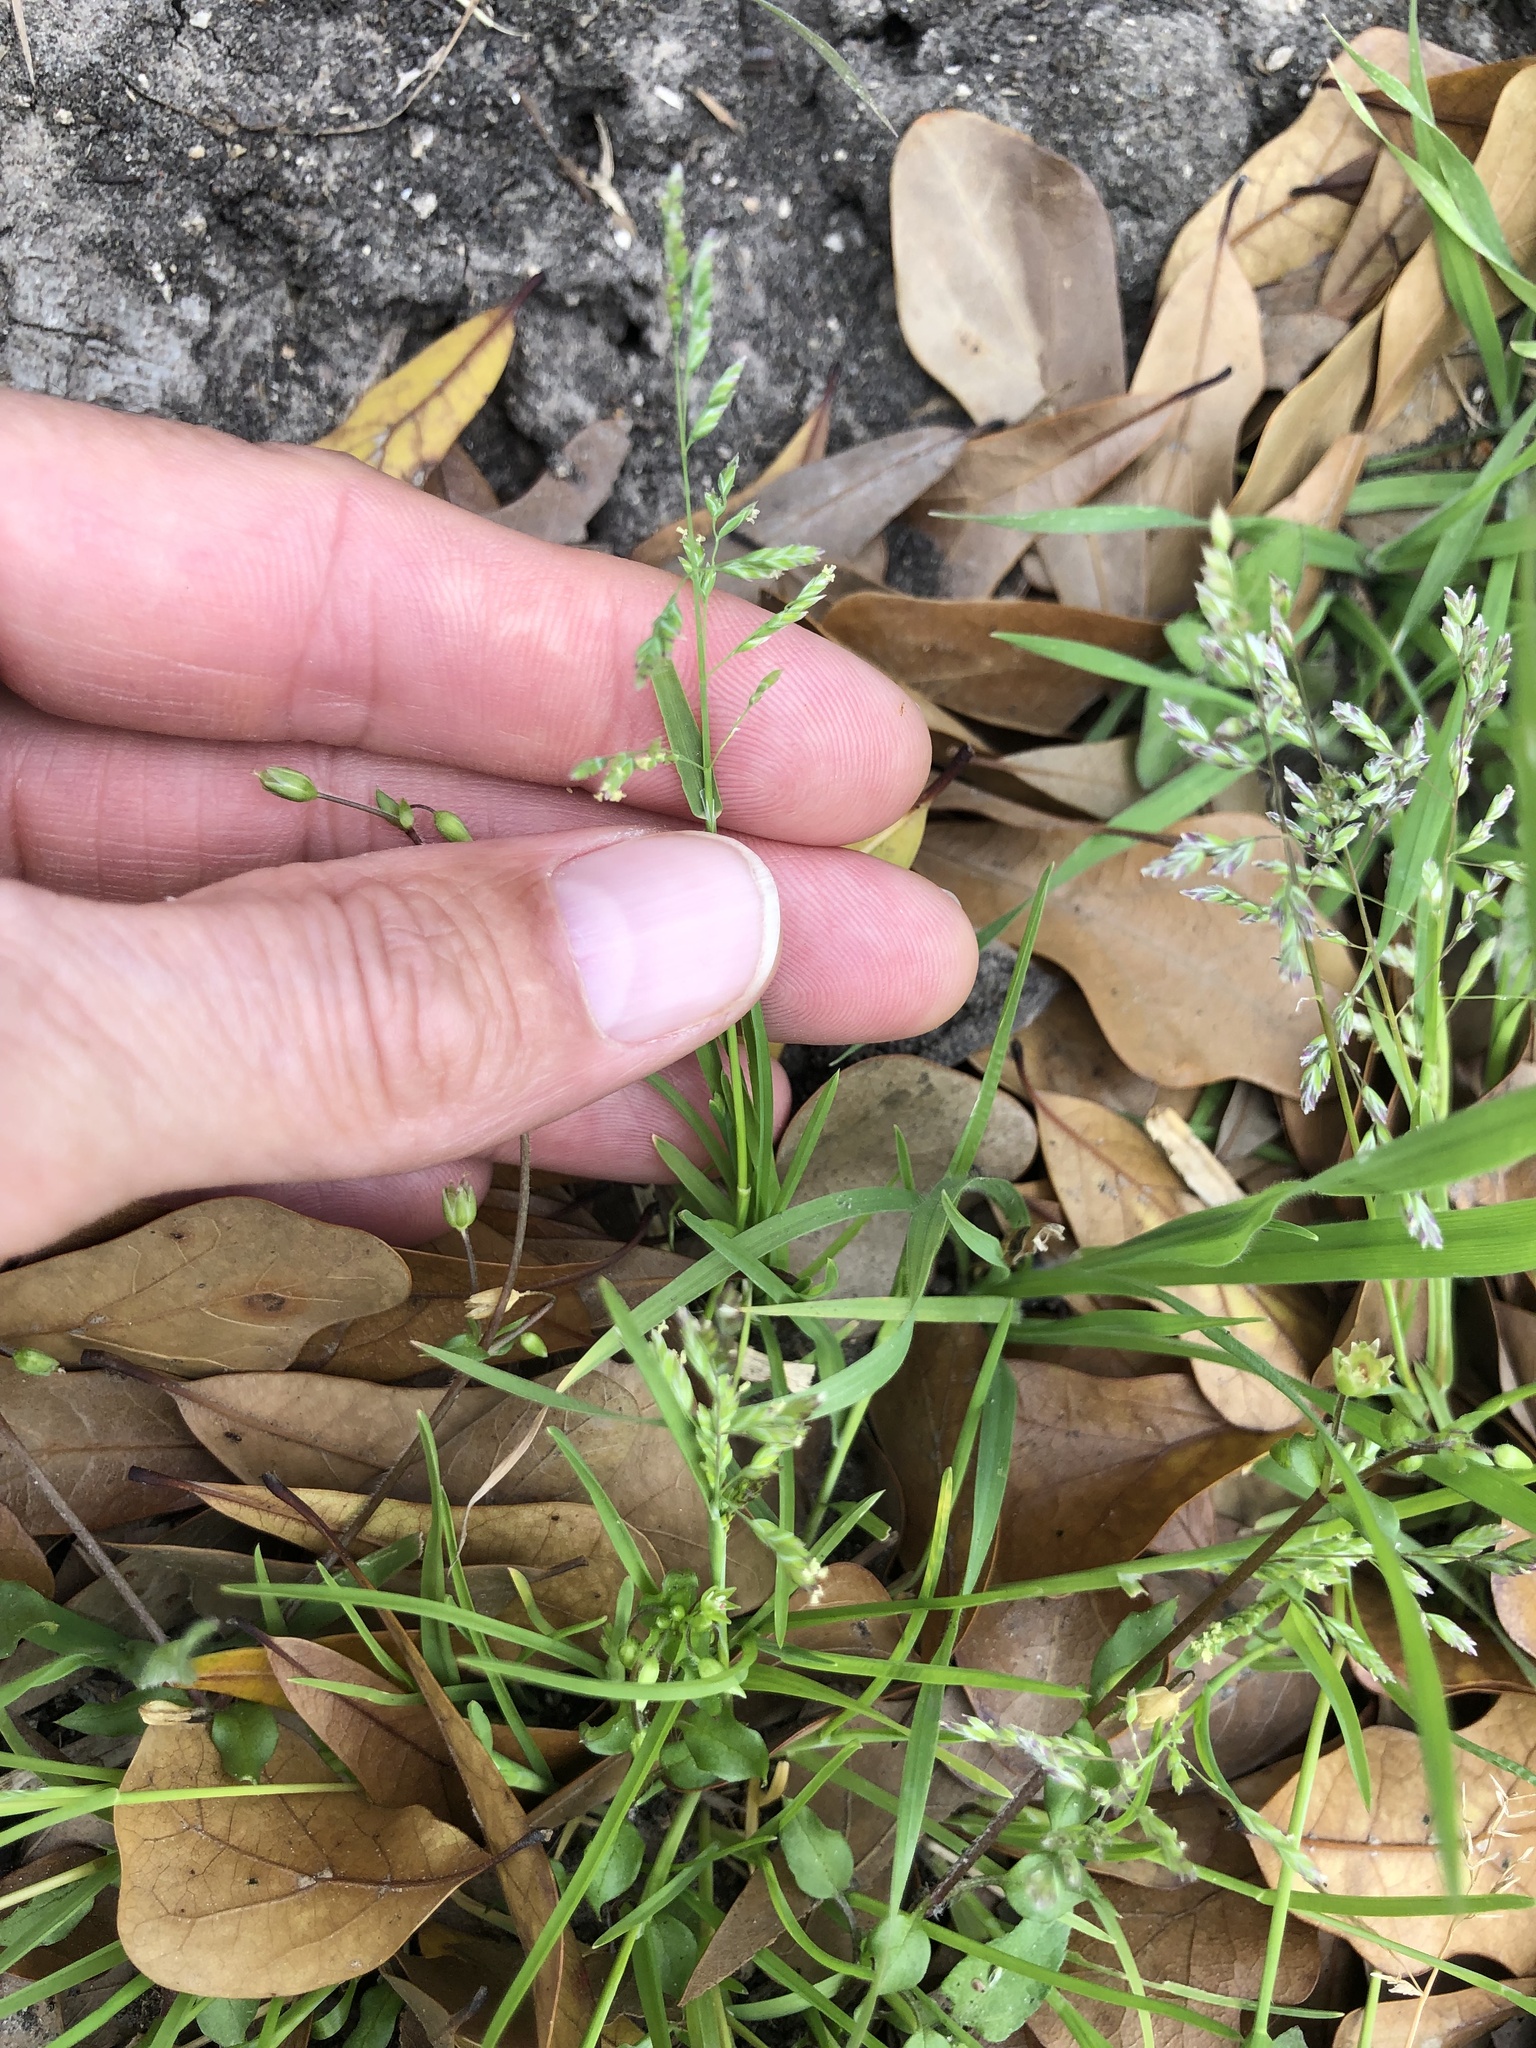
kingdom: Plantae
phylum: Tracheophyta
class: Liliopsida
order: Poales
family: Poaceae
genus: Poa
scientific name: Poa annua
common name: Annual bluegrass
